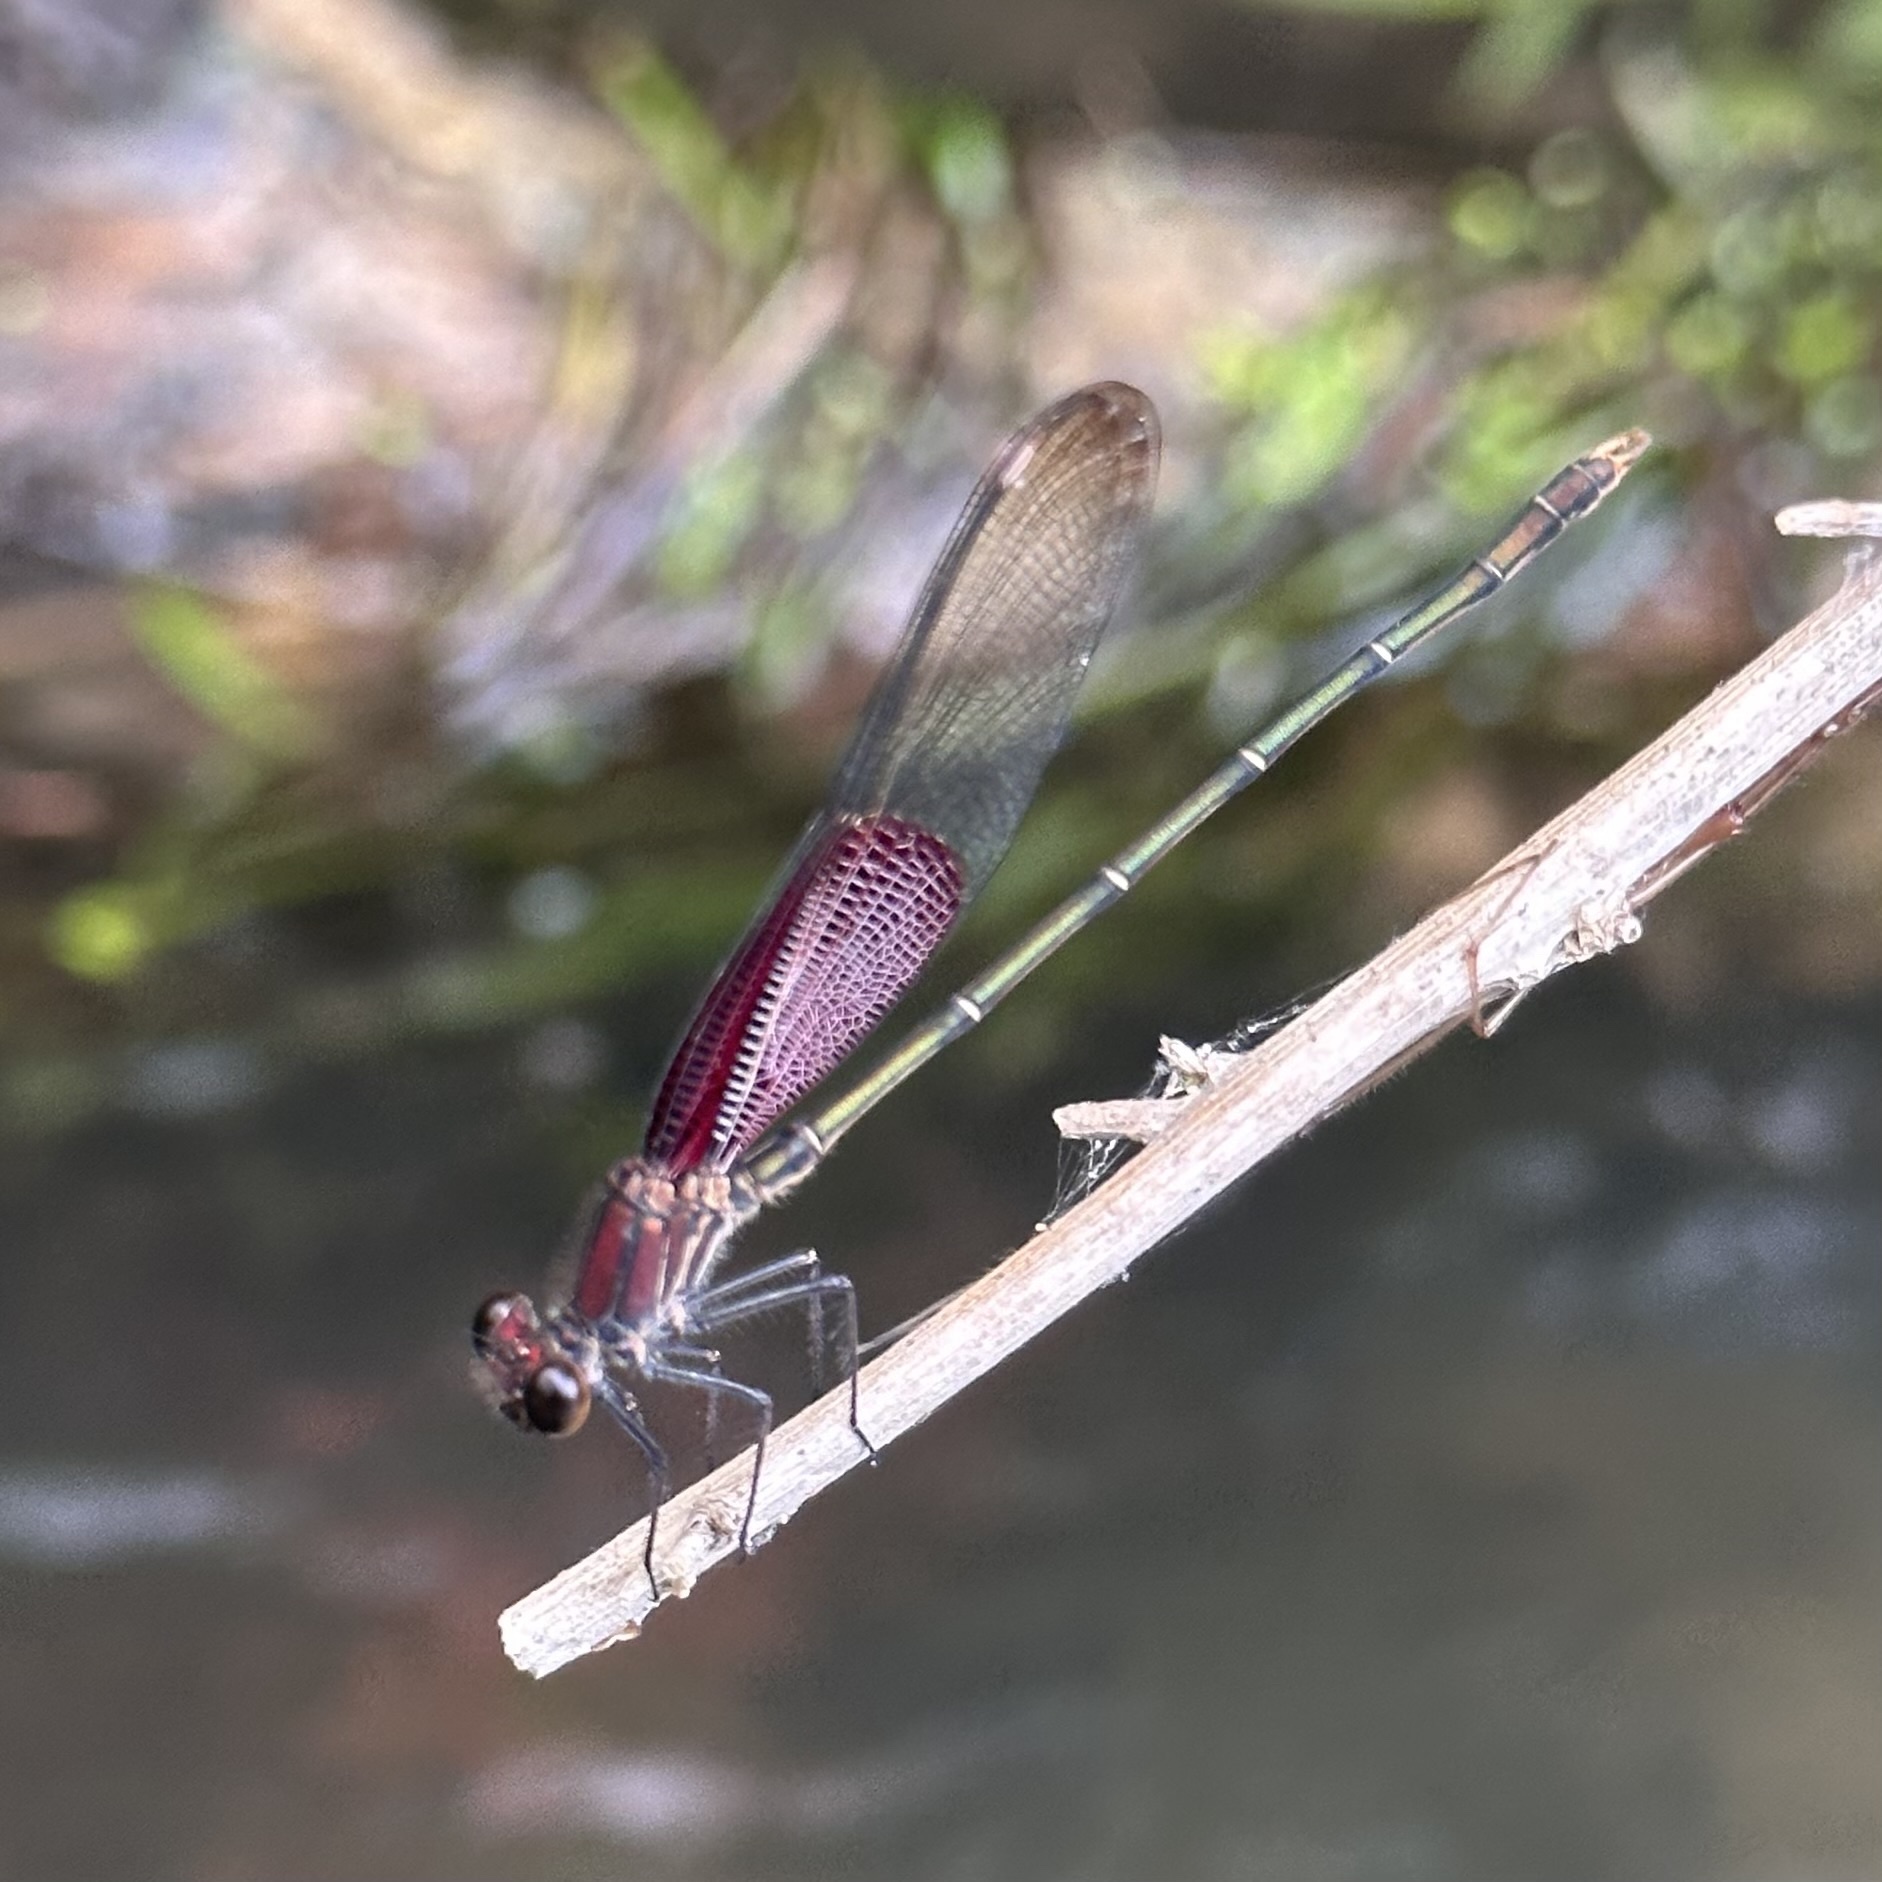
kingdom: Animalia
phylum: Arthropoda
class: Insecta
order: Odonata
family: Calopterygidae
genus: Hetaerina
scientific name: Hetaerina americana
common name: American rubyspot
